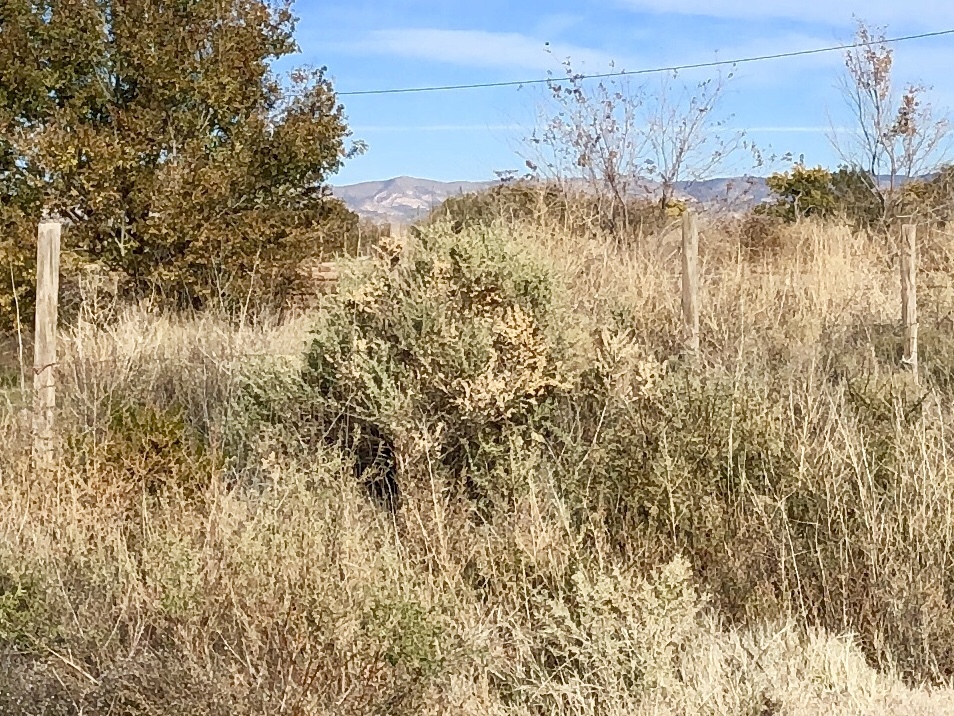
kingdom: Plantae
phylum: Tracheophyta
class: Magnoliopsida
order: Caryophyllales
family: Amaranthaceae
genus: Atriplex
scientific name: Atriplex canescens
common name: Four-wing saltbush
